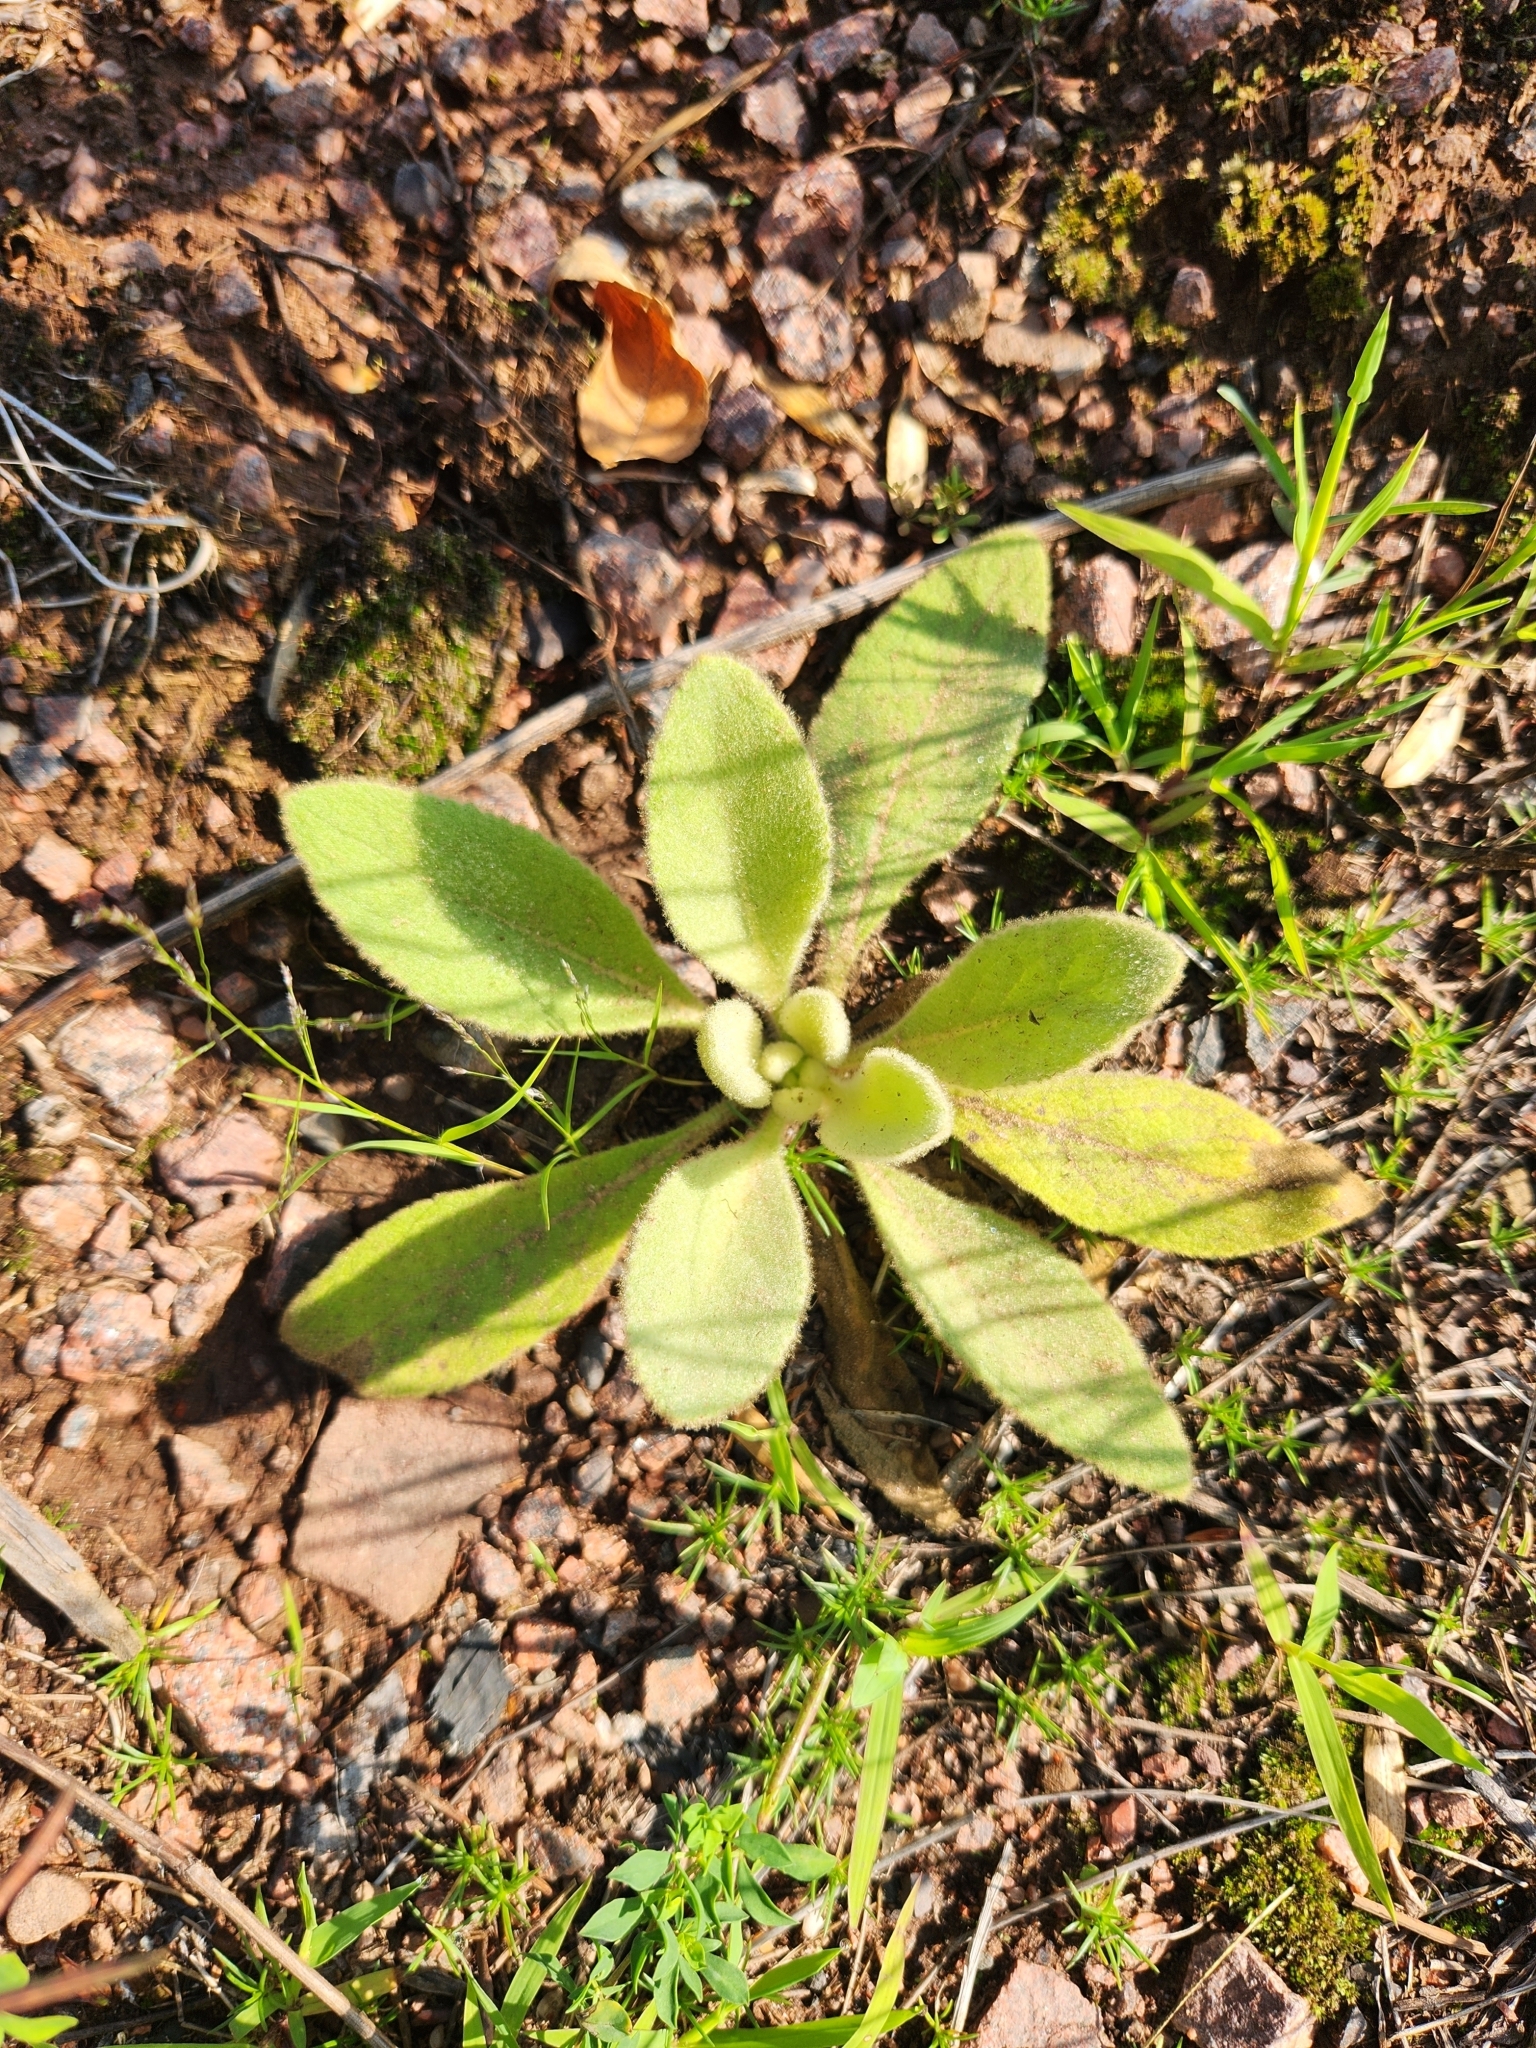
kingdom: Plantae
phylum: Tracheophyta
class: Magnoliopsida
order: Lamiales
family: Scrophulariaceae
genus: Verbascum
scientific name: Verbascum thapsus
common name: Common mullein
